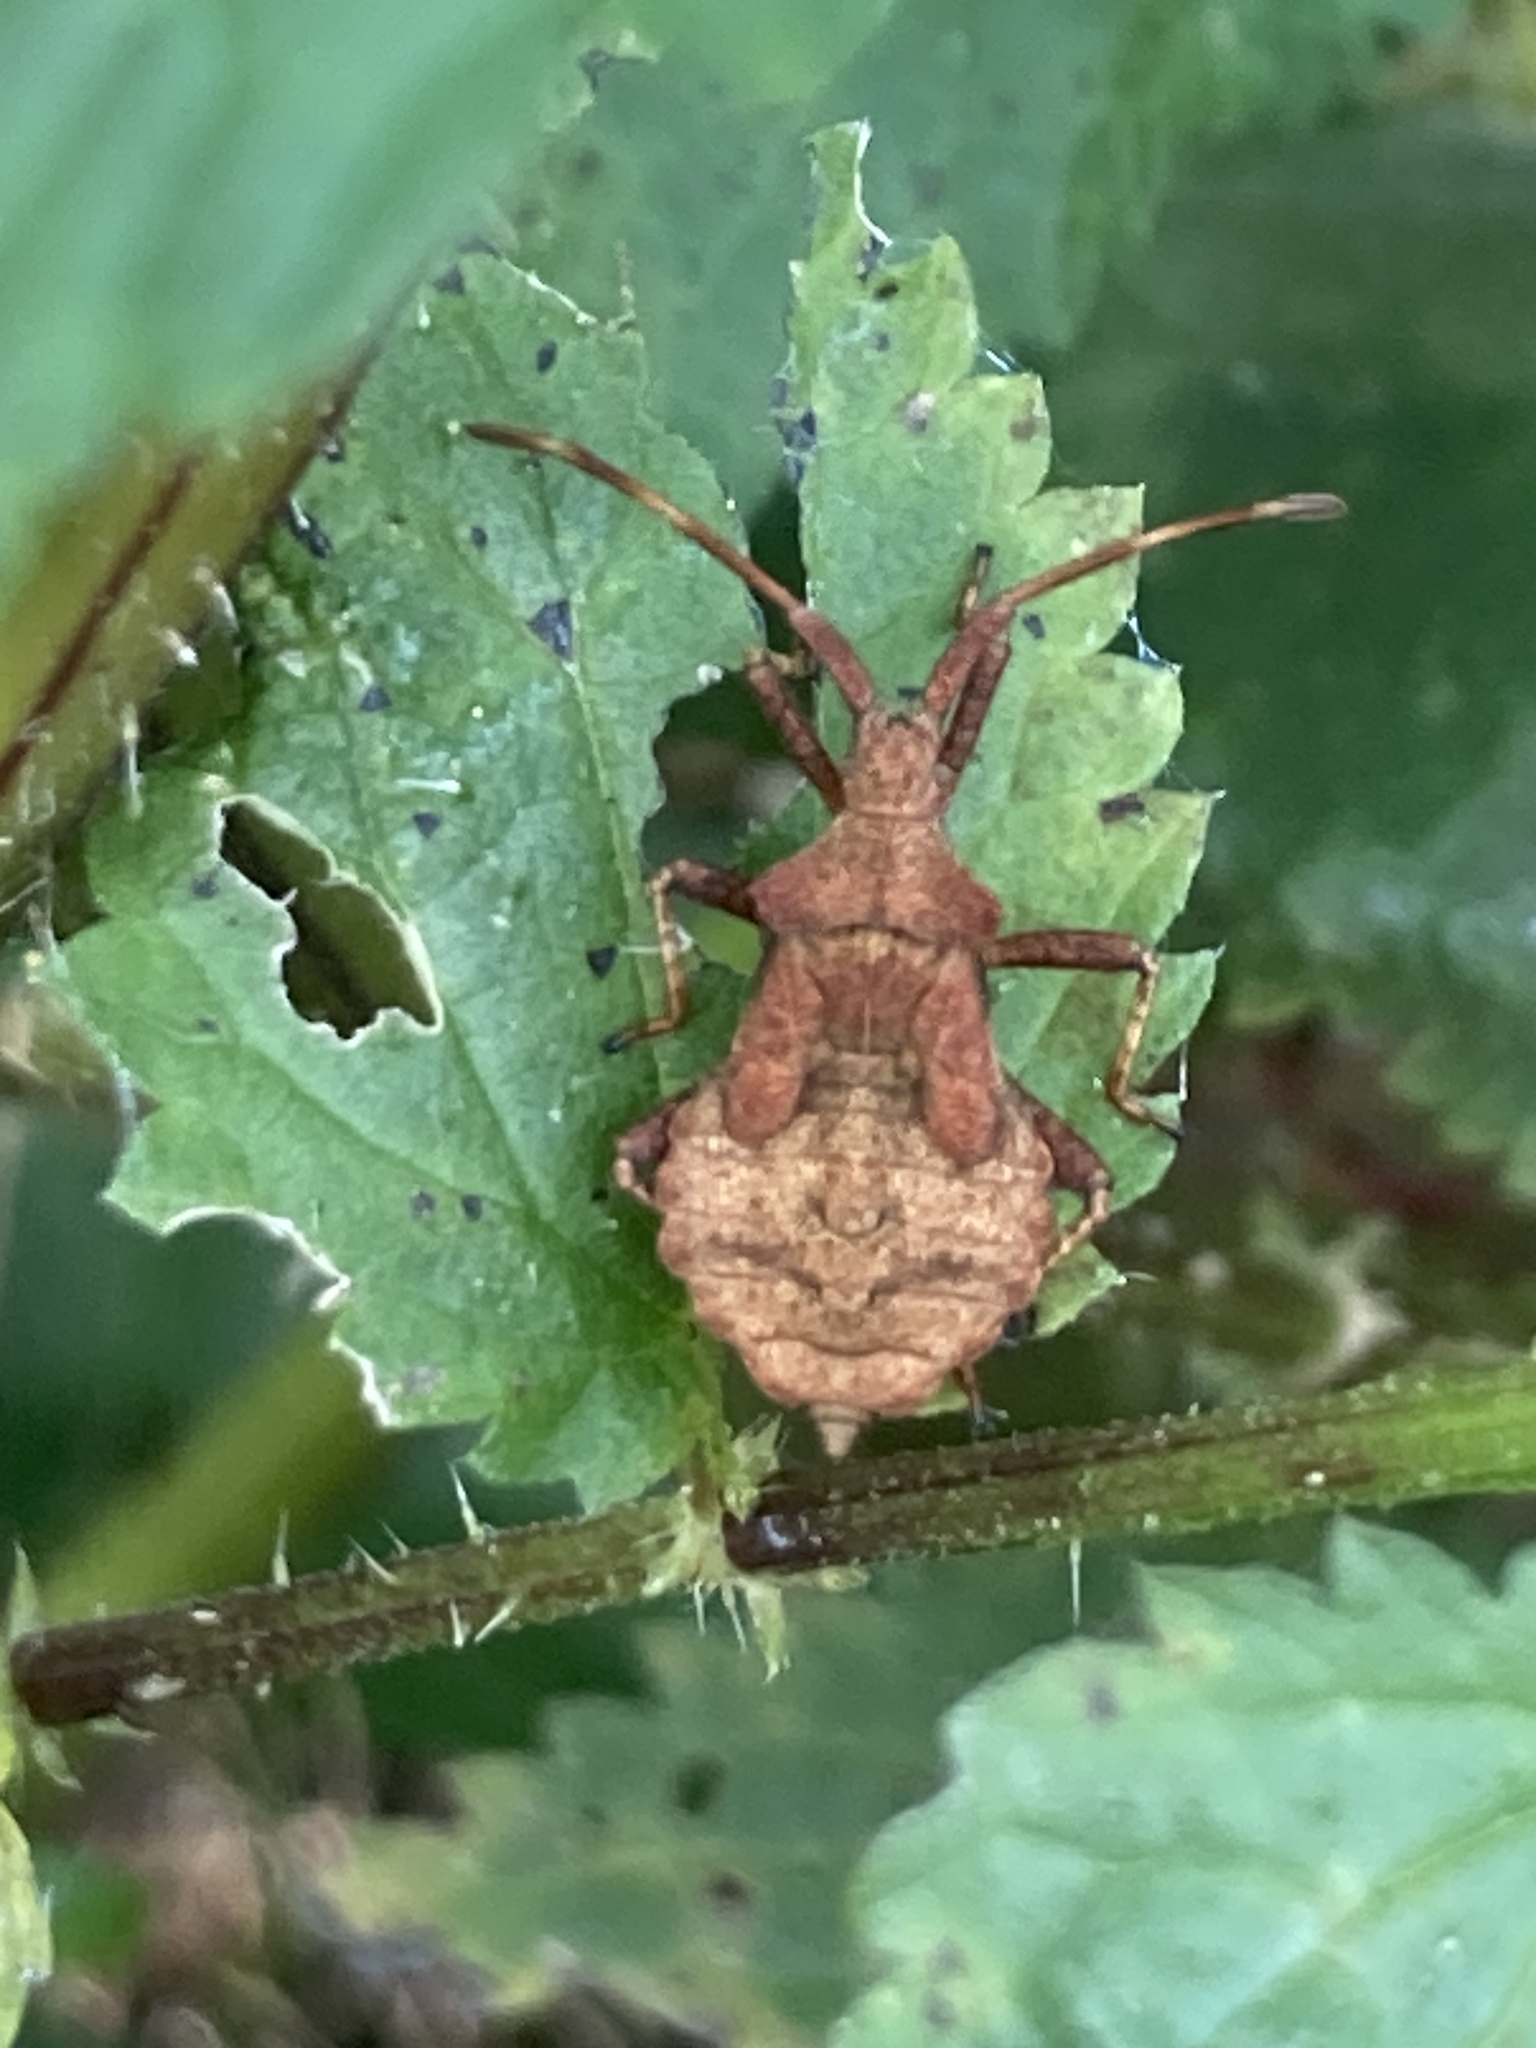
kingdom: Animalia
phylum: Arthropoda
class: Insecta
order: Hemiptera
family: Coreidae
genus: Coreus
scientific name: Coreus marginatus
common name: Dock bug
